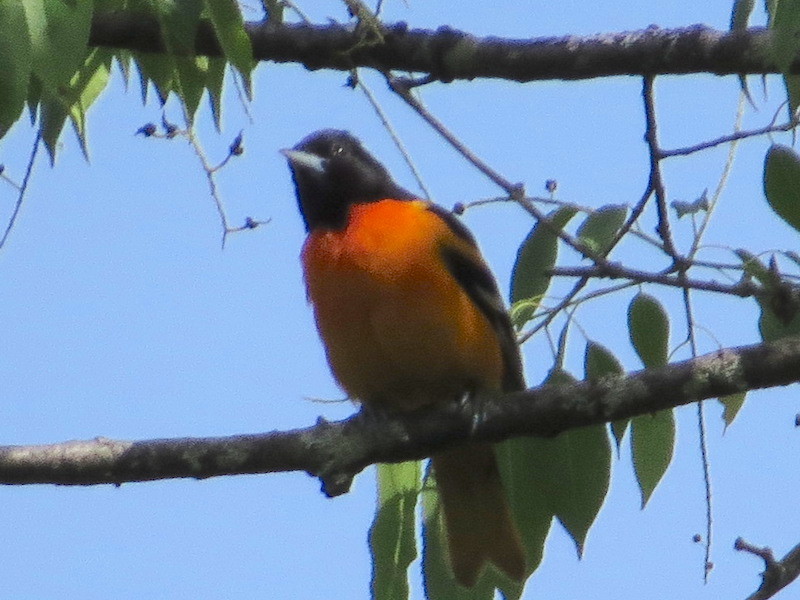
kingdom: Animalia
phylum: Chordata
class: Aves
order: Passeriformes
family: Icteridae
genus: Icterus
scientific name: Icterus galbula
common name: Baltimore oriole
